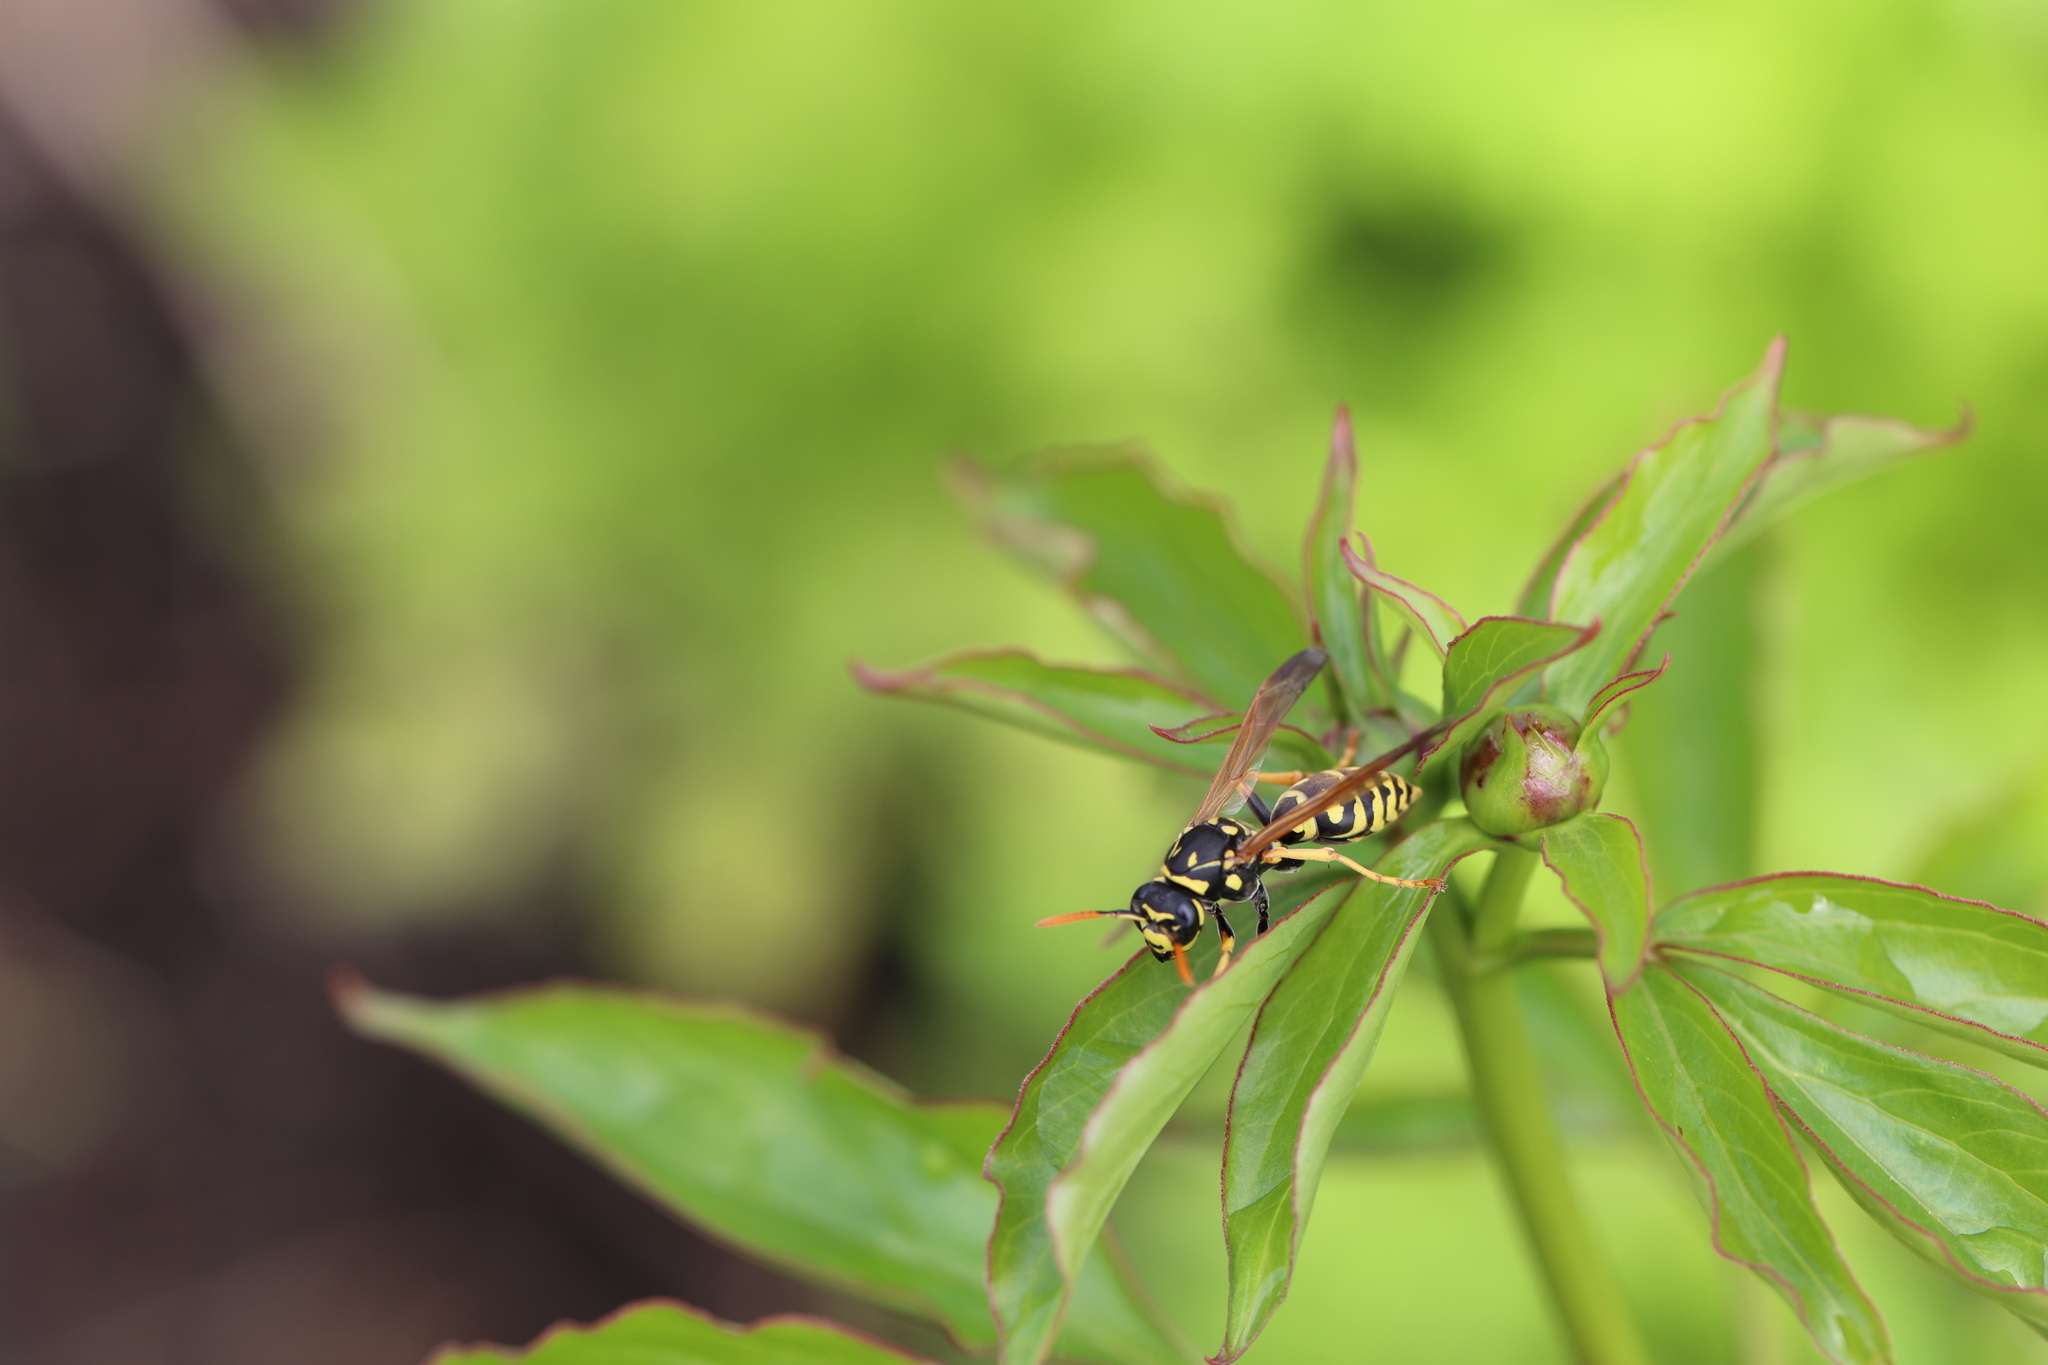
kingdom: Animalia
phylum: Arthropoda
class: Insecta
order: Hymenoptera
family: Eumenidae
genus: Polistes
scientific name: Polistes dominula
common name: Paper wasp
